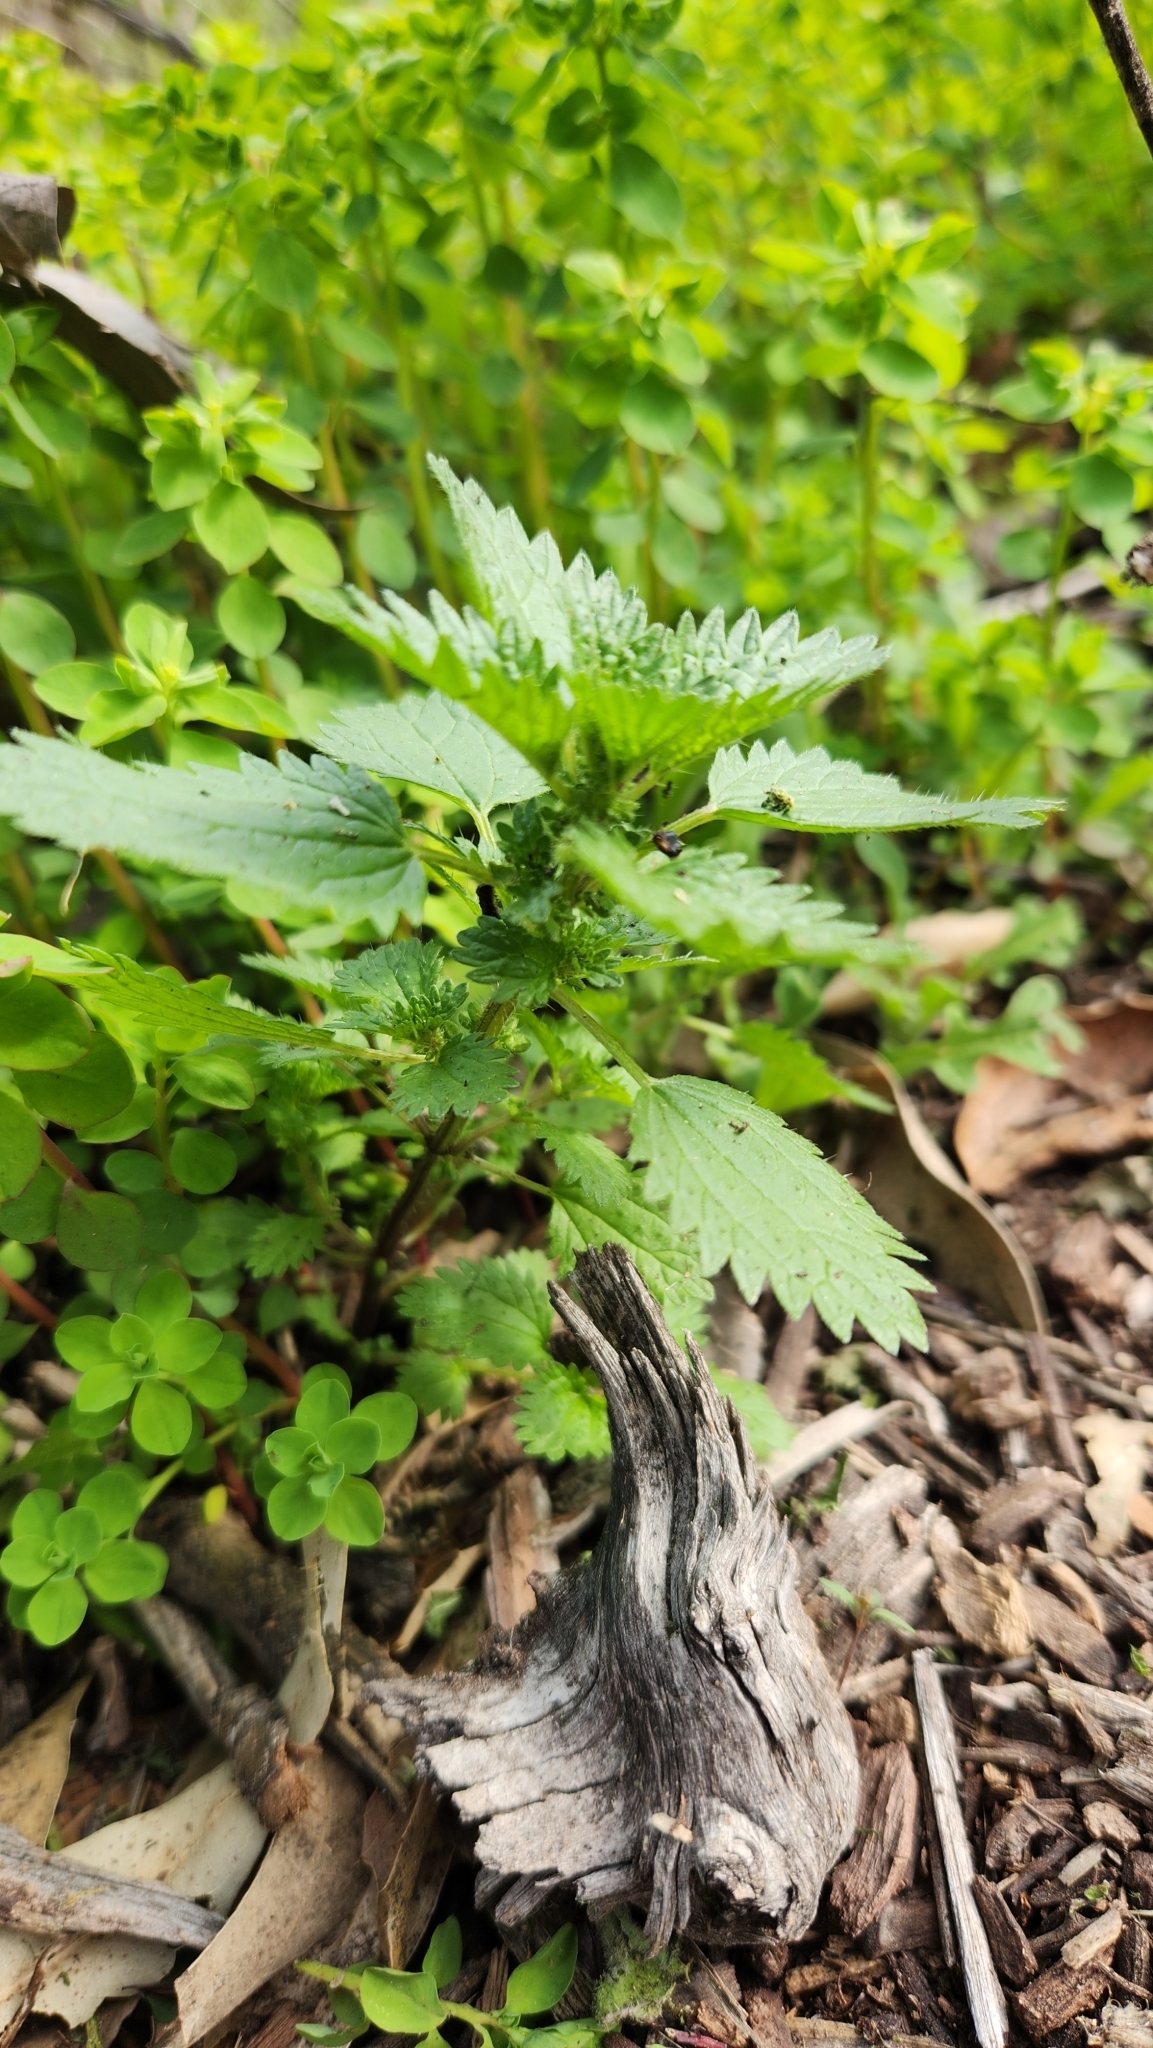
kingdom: Plantae
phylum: Tracheophyta
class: Magnoliopsida
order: Rosales
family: Urticaceae
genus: Urtica
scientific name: Urtica urens
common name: Dwarf nettle
